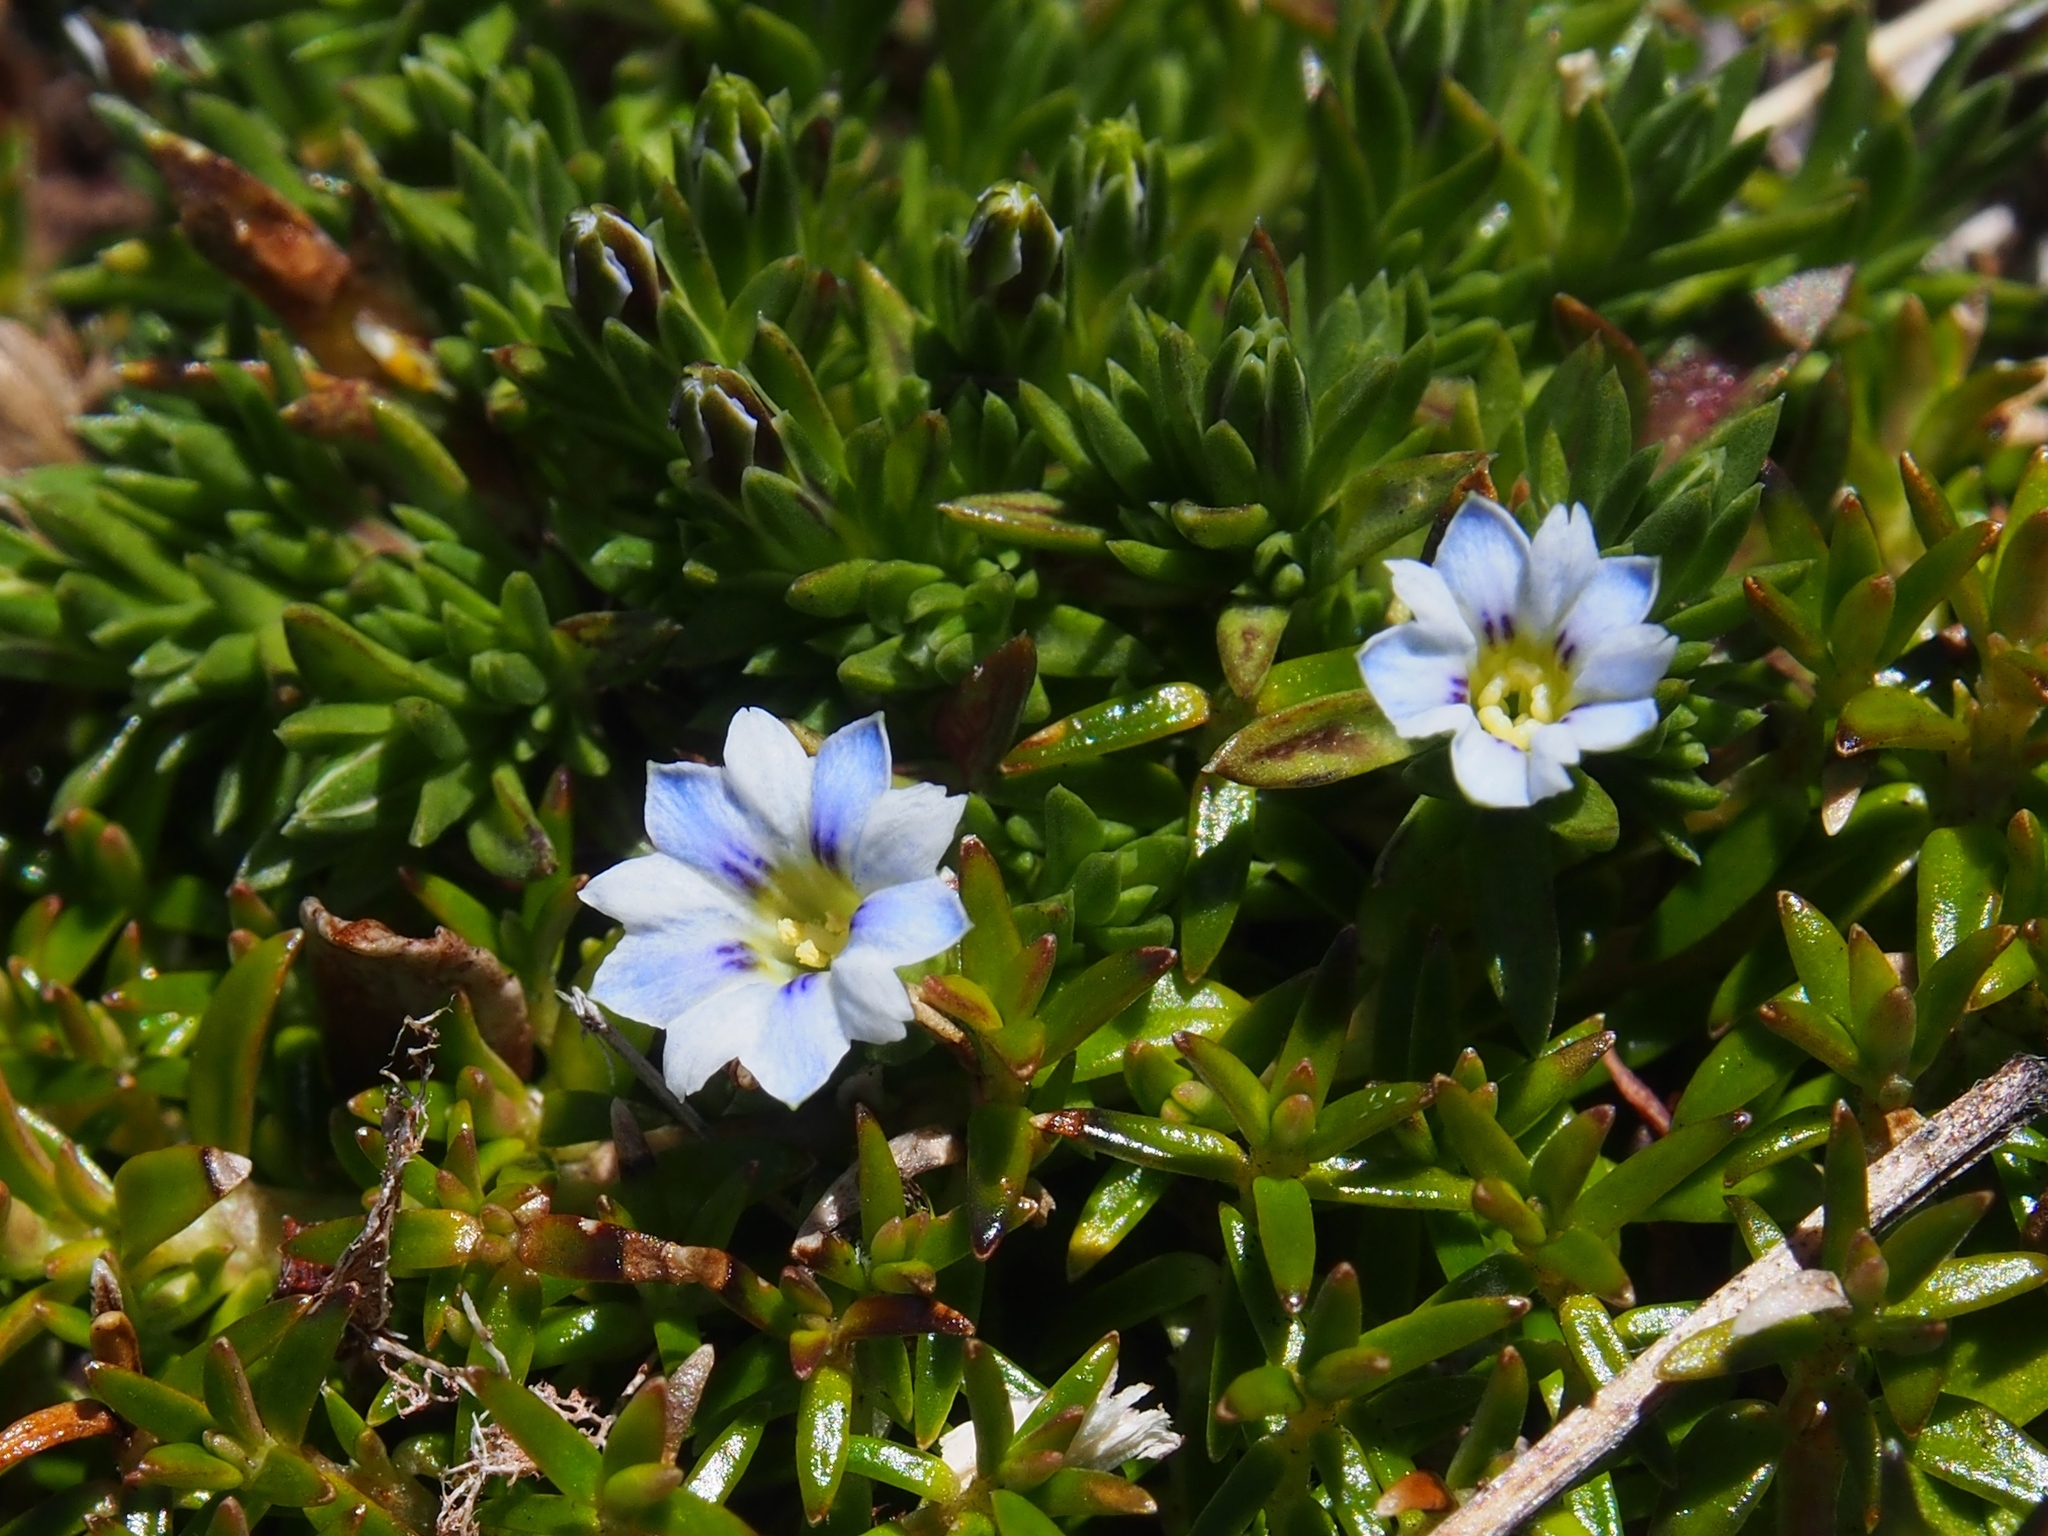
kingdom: Plantae
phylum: Tracheophyta
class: Magnoliopsida
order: Gentianales
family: Gentianaceae
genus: Gentiana
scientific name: Gentiana sedifolia
